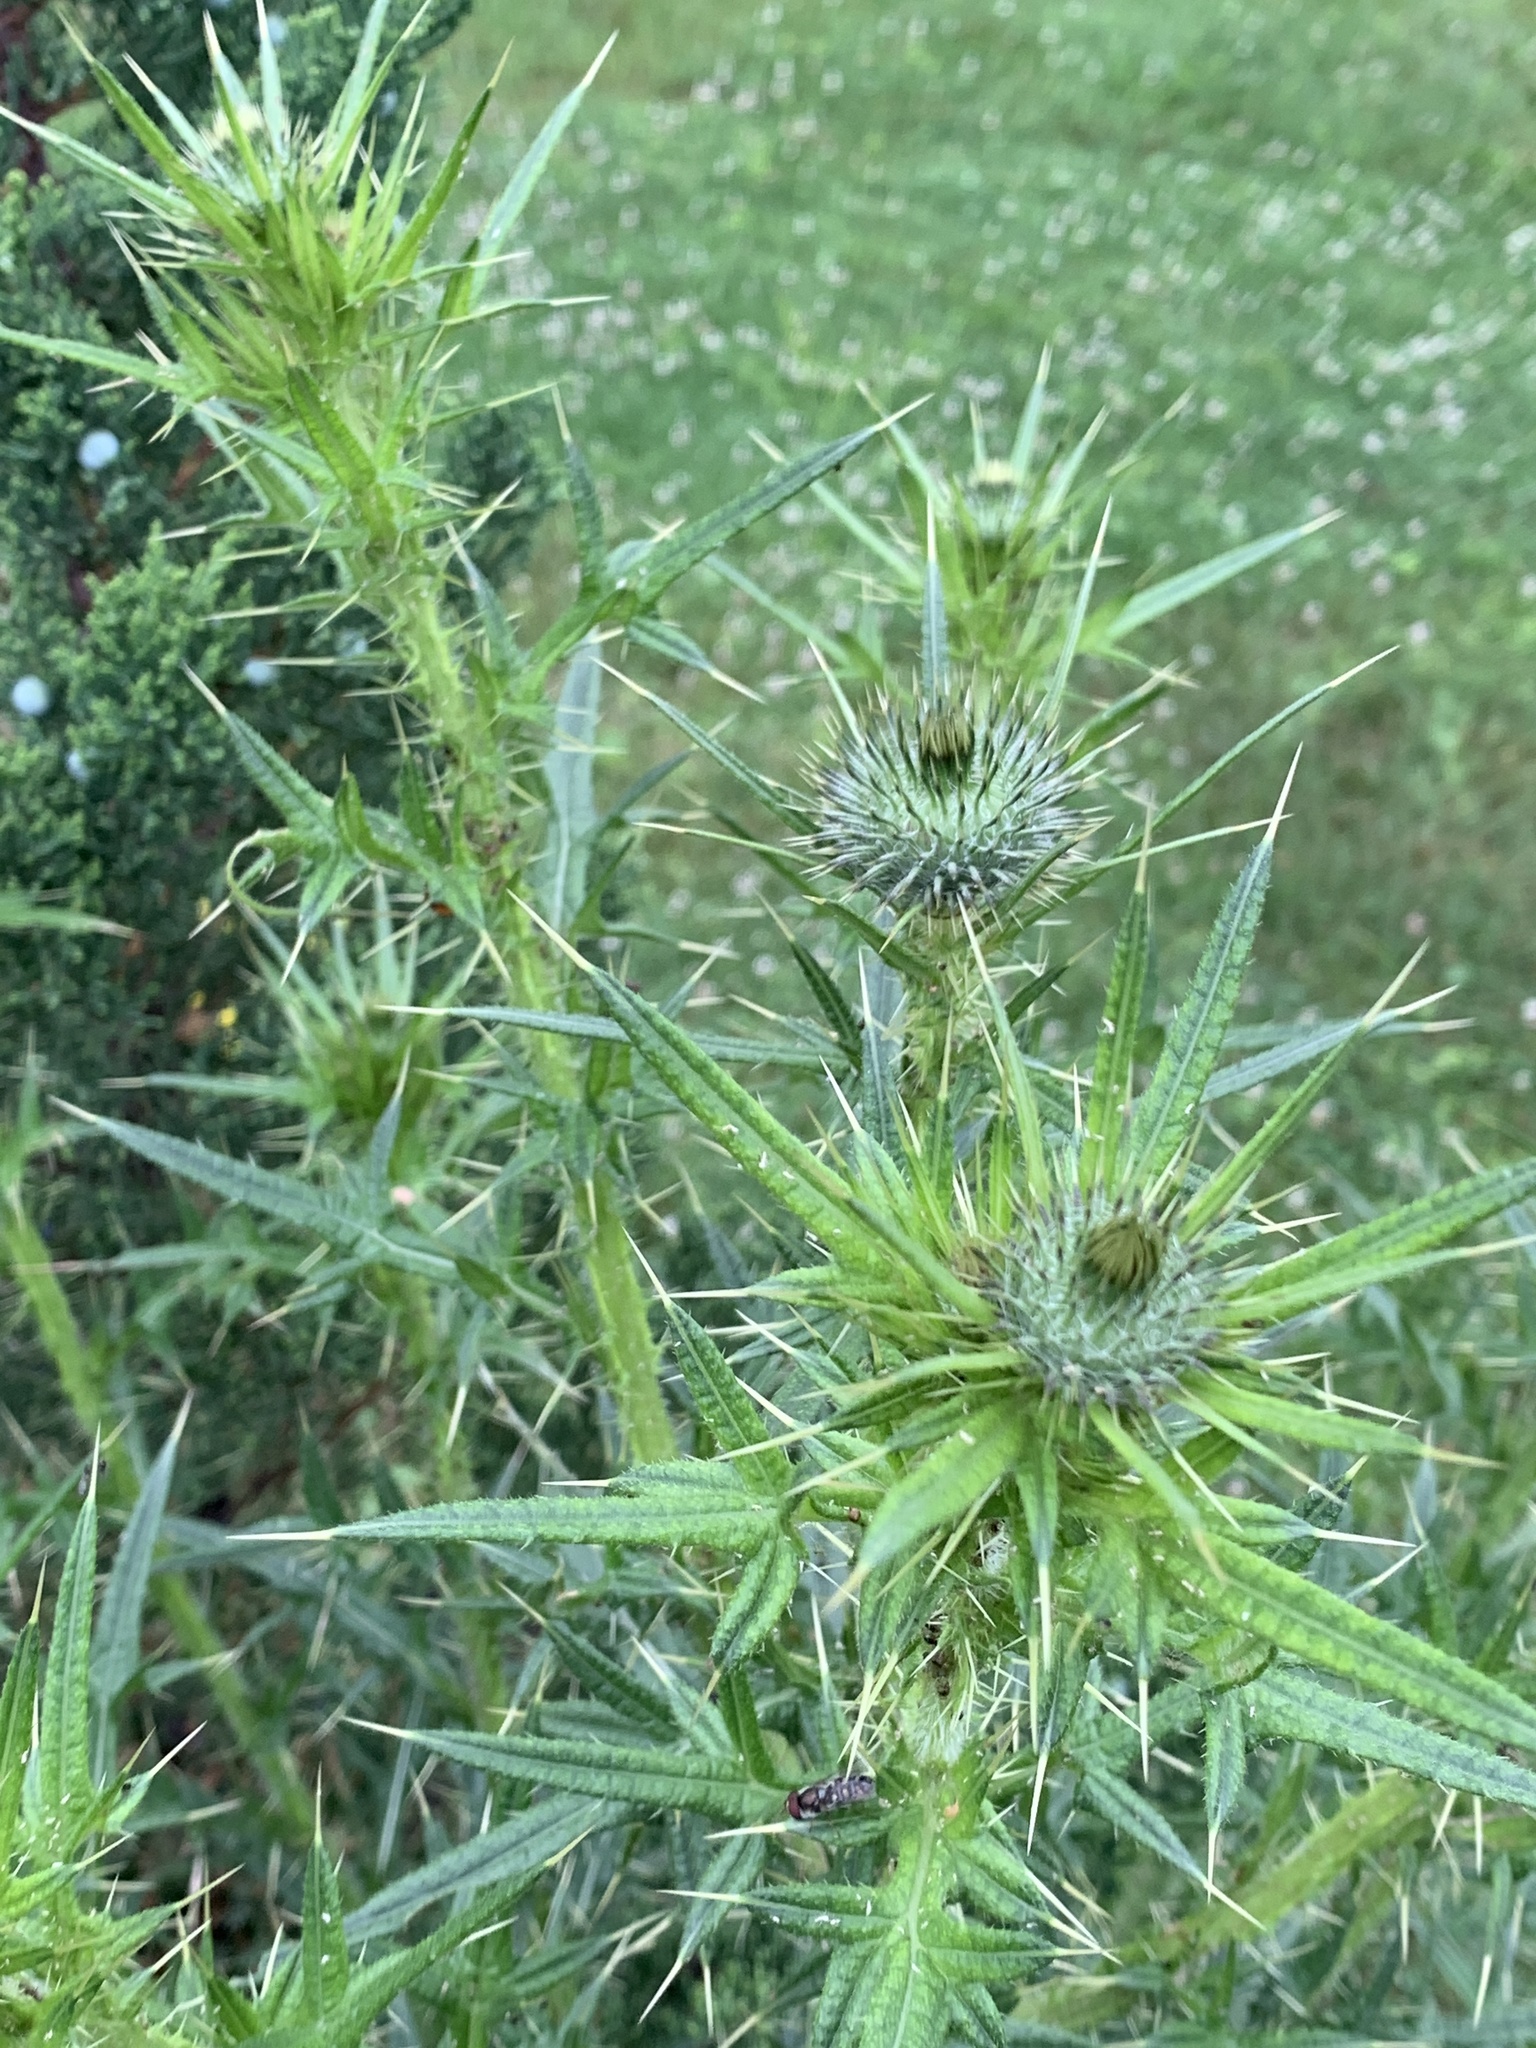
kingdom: Plantae
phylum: Tracheophyta
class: Magnoliopsida
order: Asterales
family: Asteraceae
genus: Cirsium
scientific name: Cirsium vulgare
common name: Bull thistle
